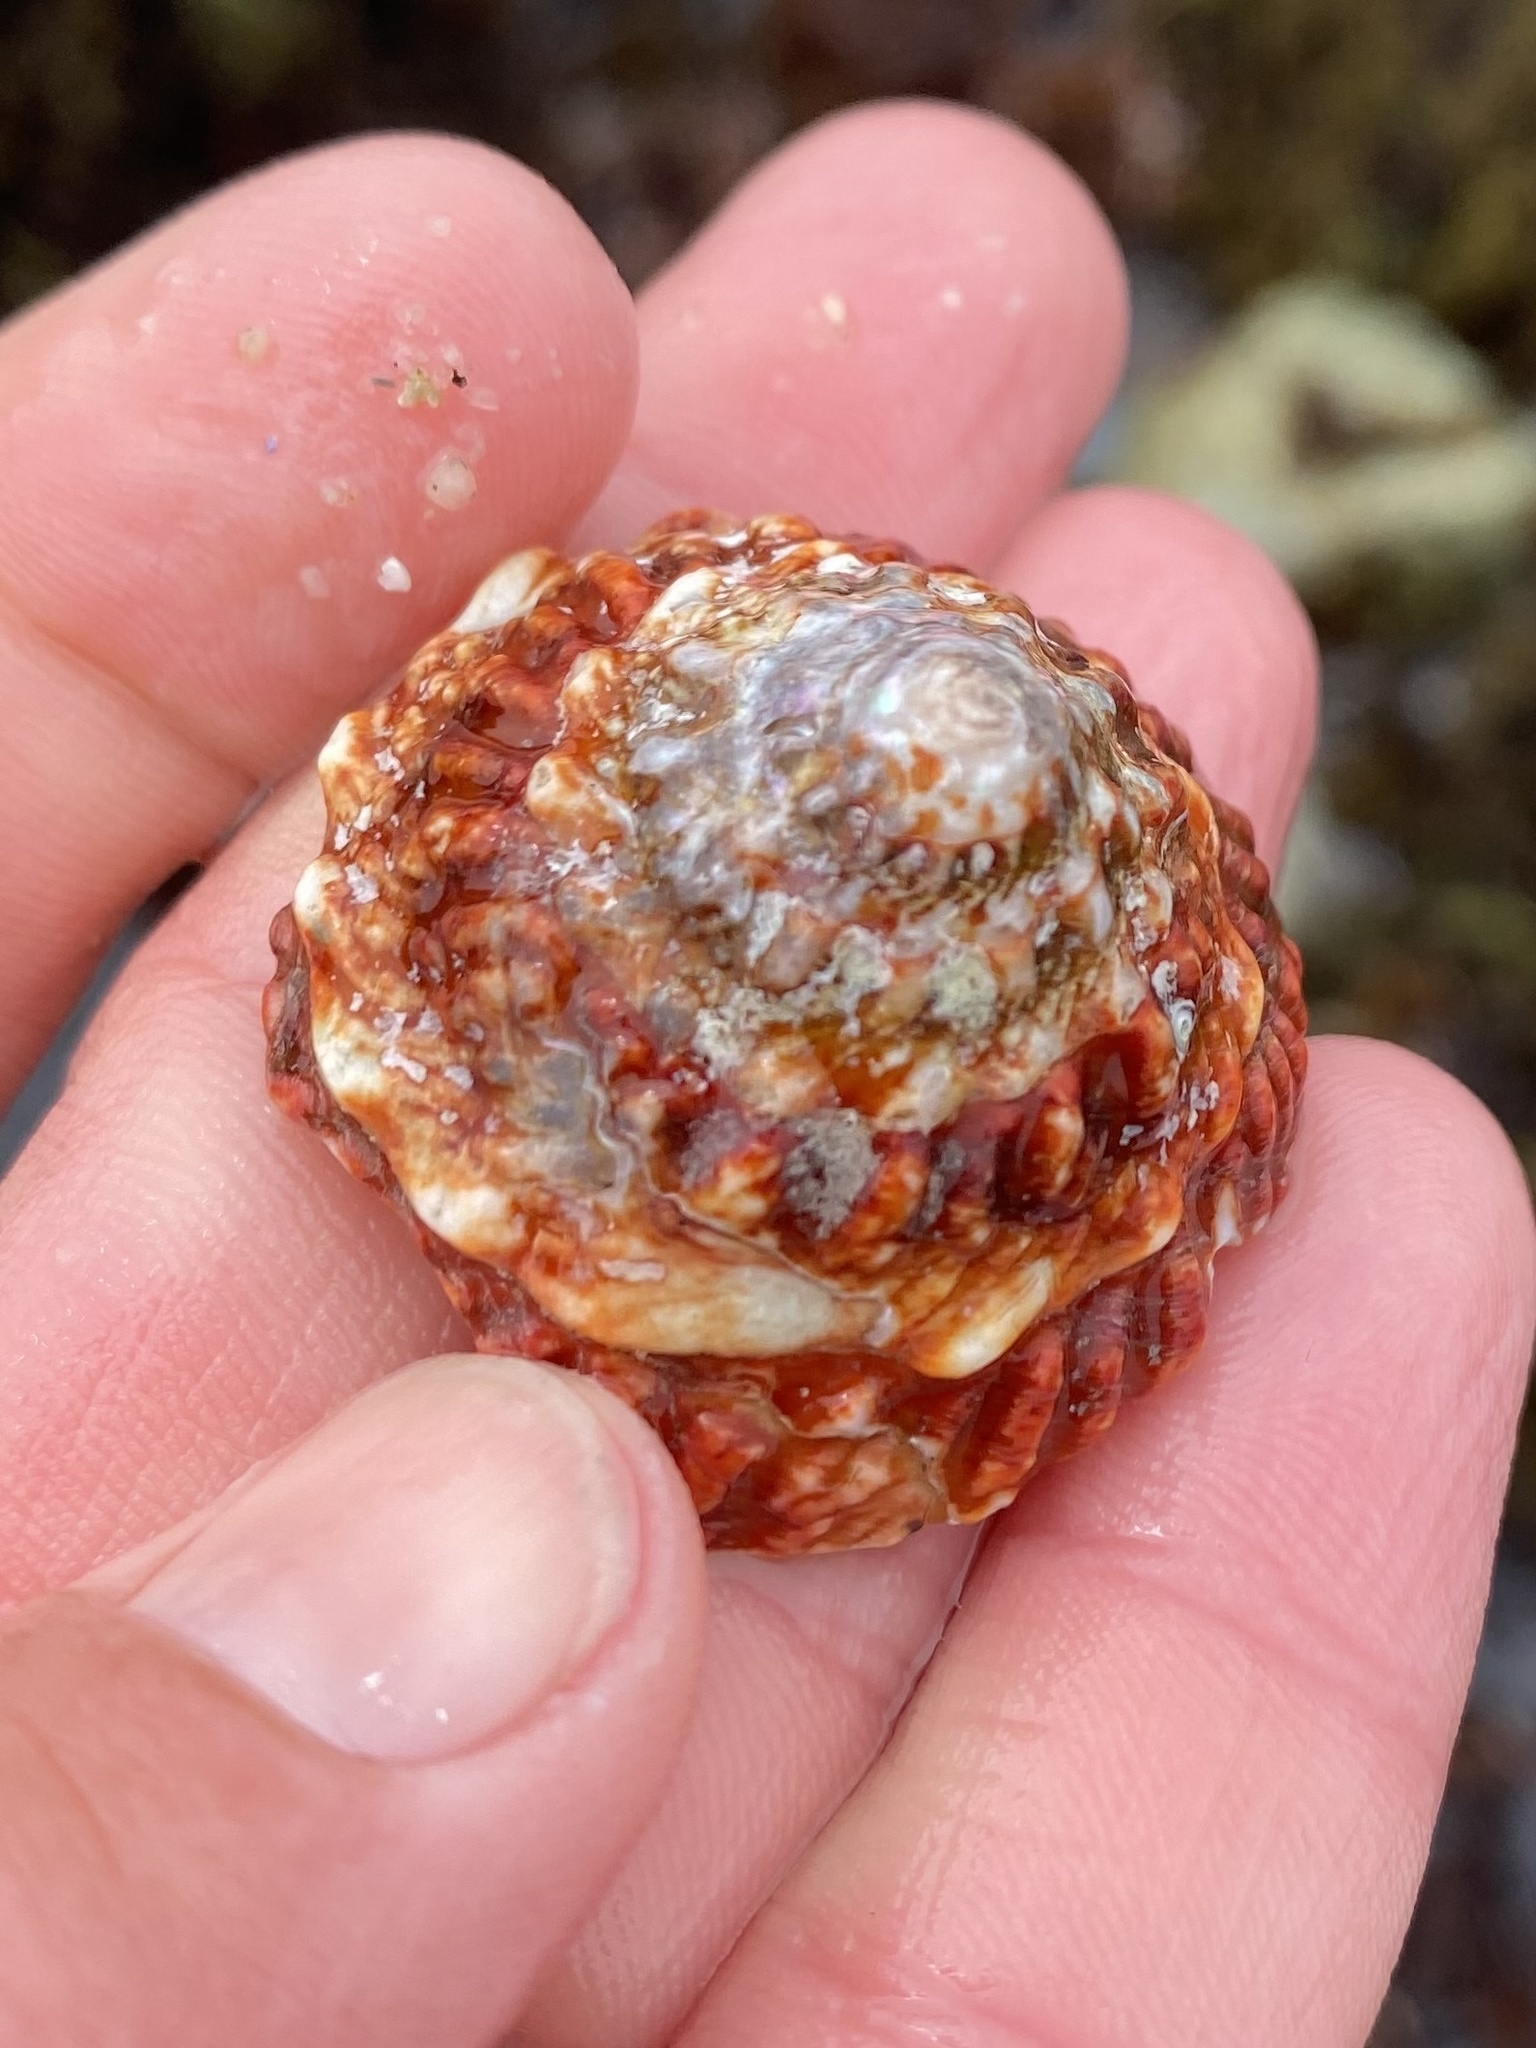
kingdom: Animalia
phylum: Mollusca
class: Gastropoda
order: Trochida
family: Turbinidae
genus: Pomaulax
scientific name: Pomaulax gibberosus
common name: Red turban
